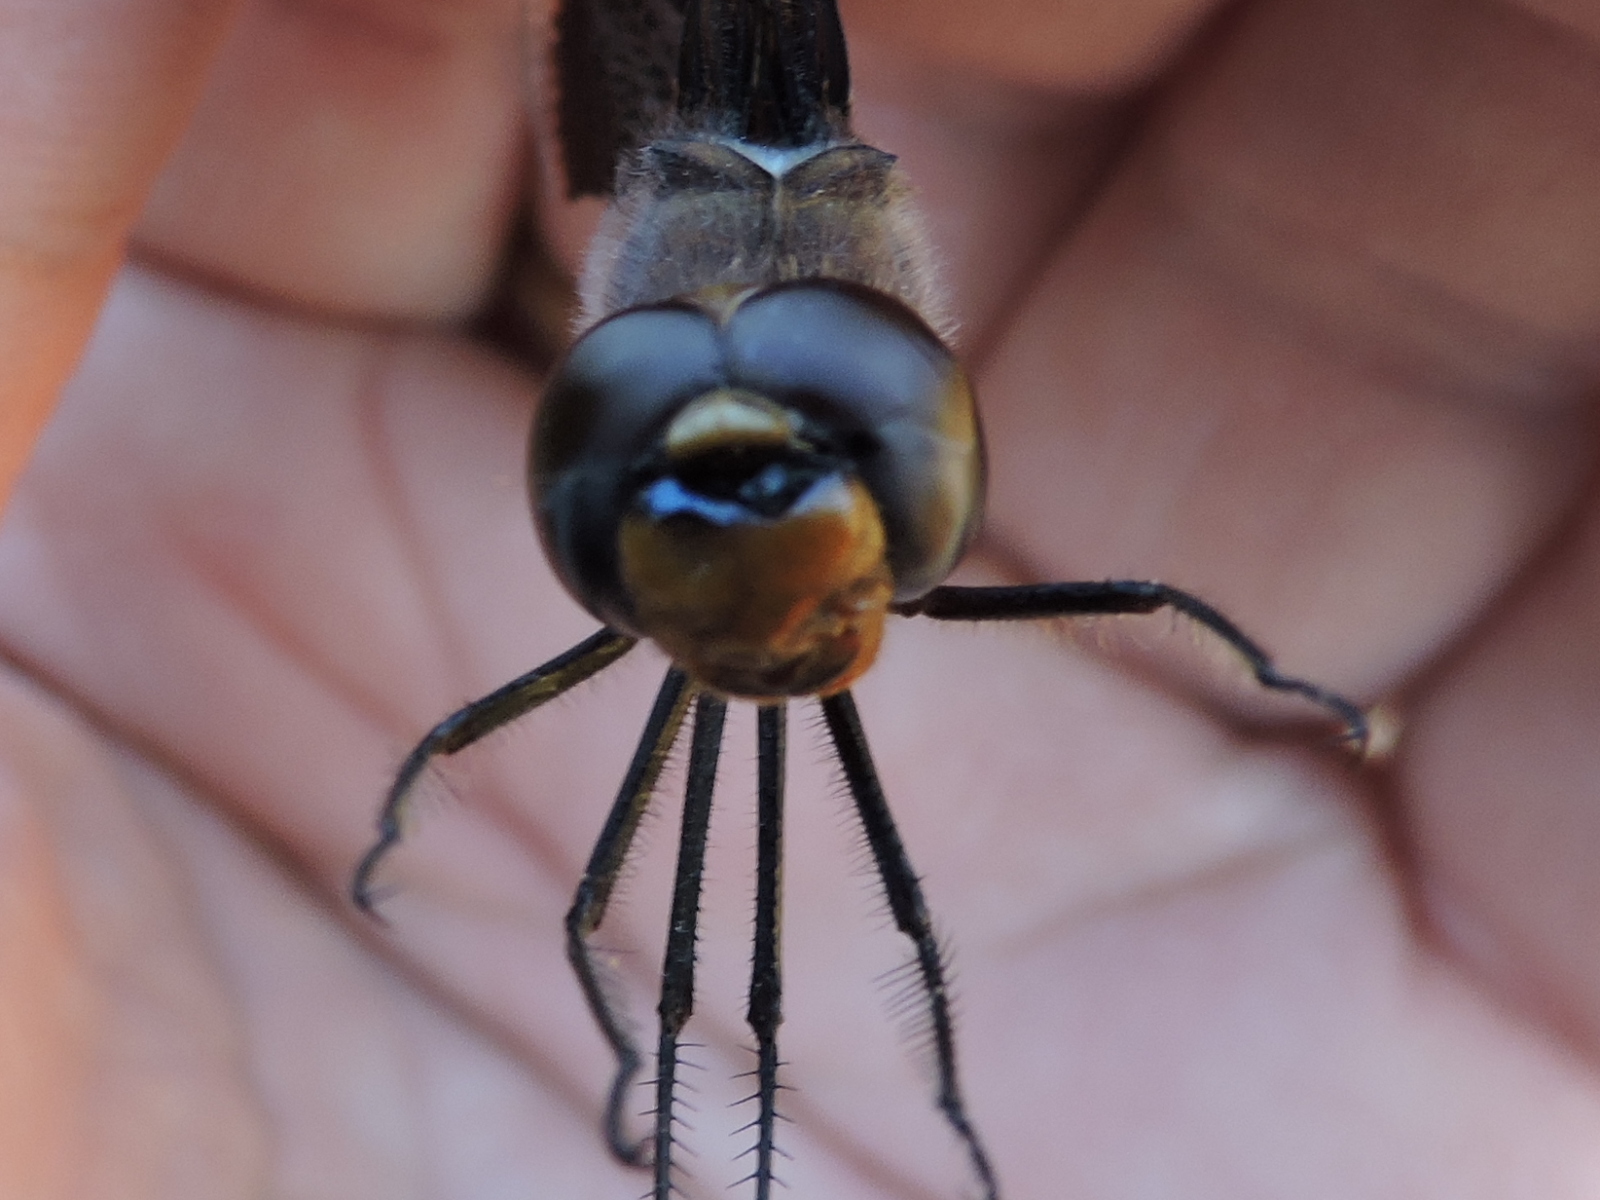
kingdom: Animalia
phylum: Arthropoda
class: Insecta
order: Odonata
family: Libellulidae
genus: Tramea
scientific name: Tramea lacerata
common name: Black saddlebags
